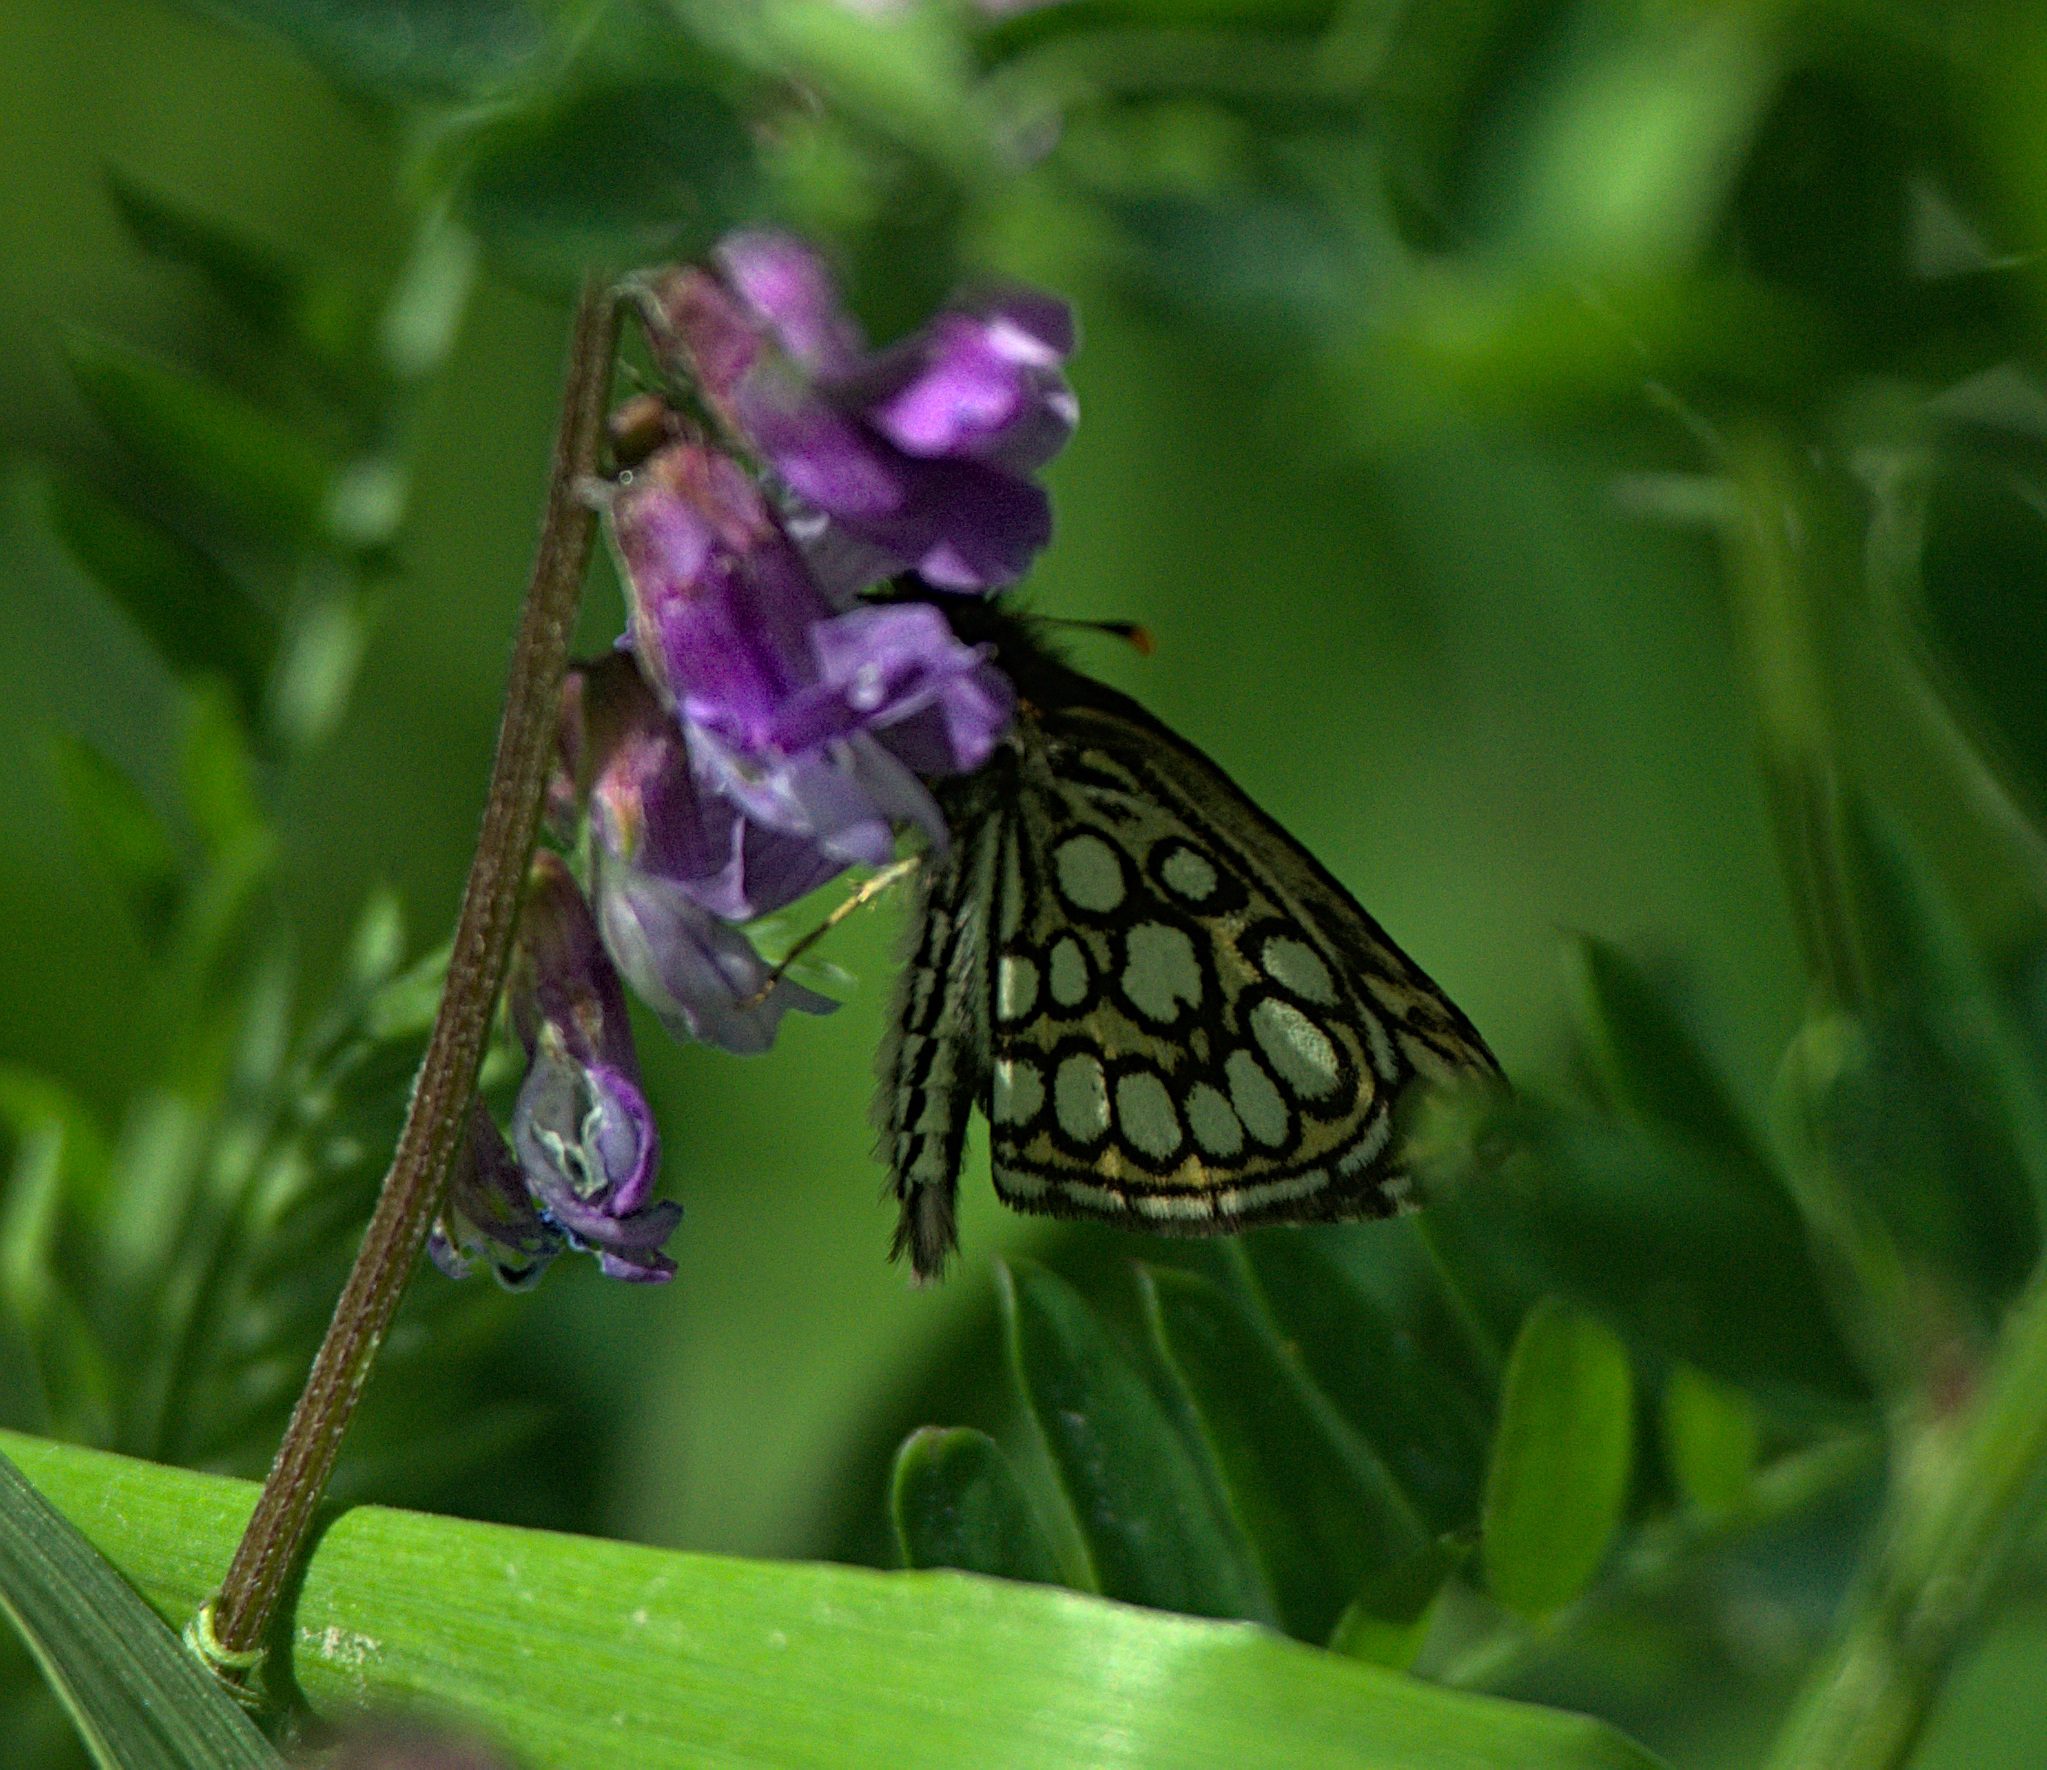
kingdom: Animalia
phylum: Arthropoda
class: Insecta
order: Lepidoptera
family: Hesperiidae
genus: Heteropterus
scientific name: Heteropterus morpheus
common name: Large chequered skipper
